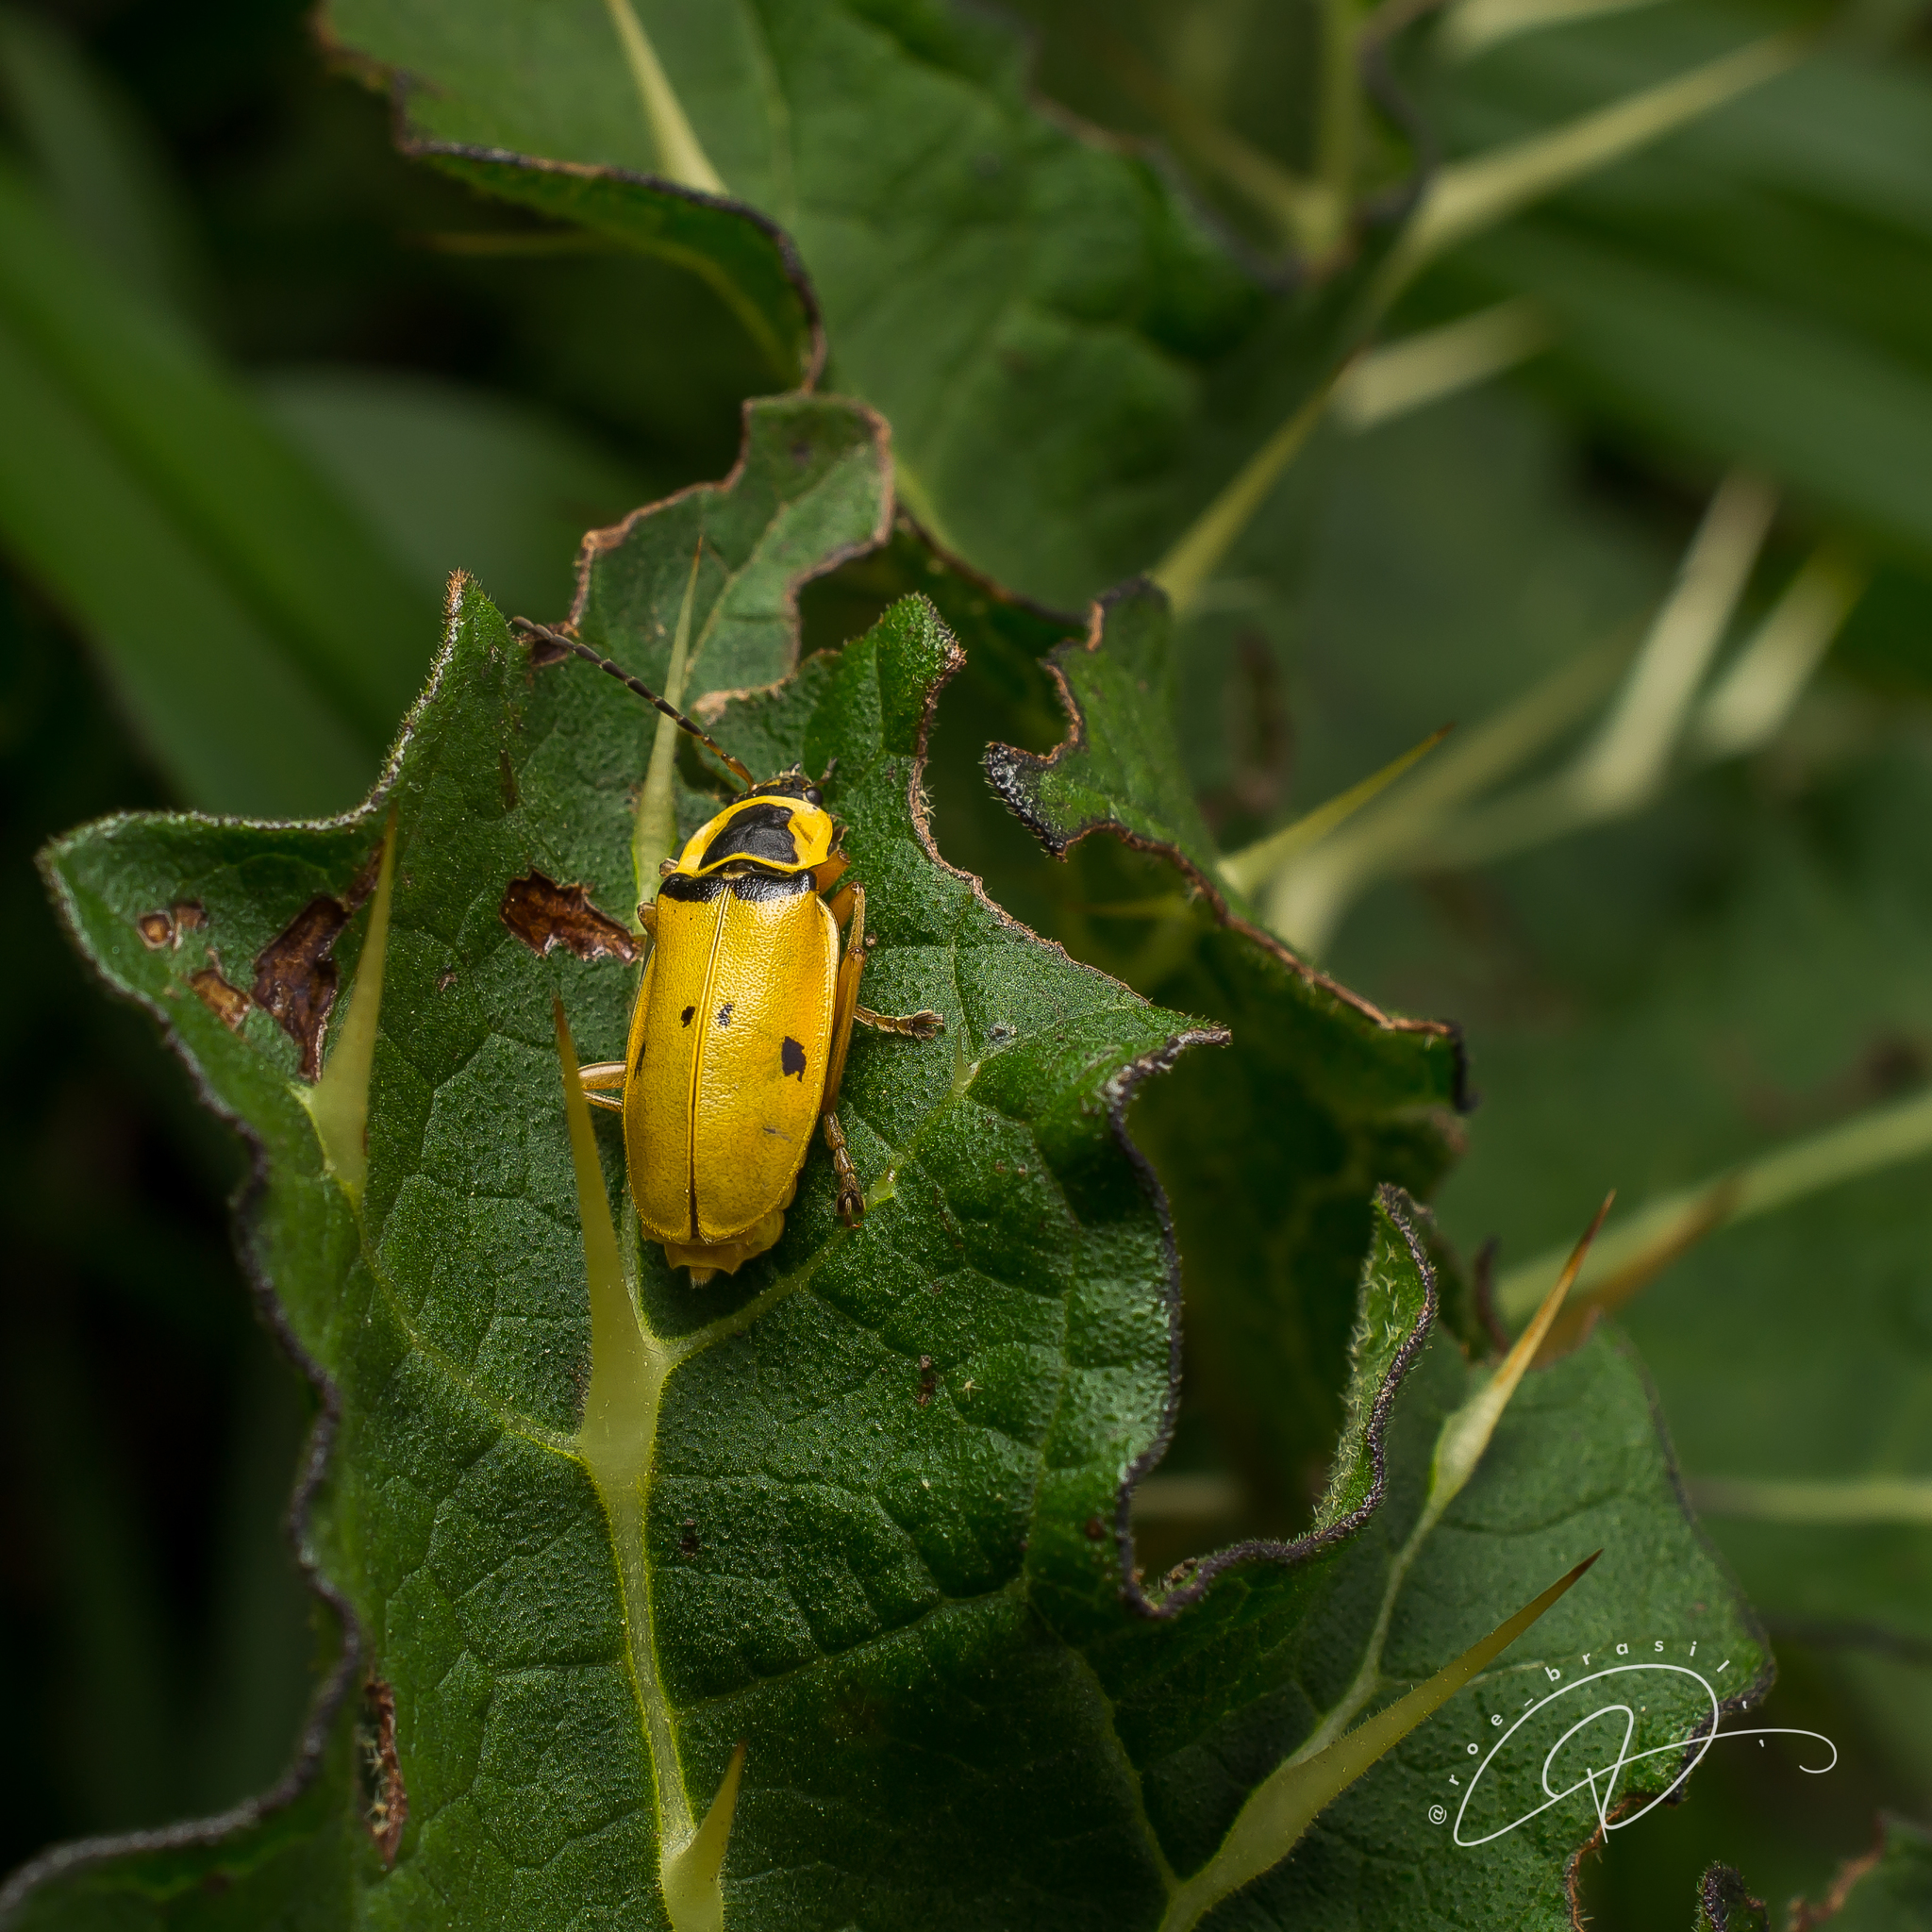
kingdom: Animalia
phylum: Arthropoda
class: Insecta
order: Coleoptera
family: Cantharidae
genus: Chauliognathus
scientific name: Chauliognathus
